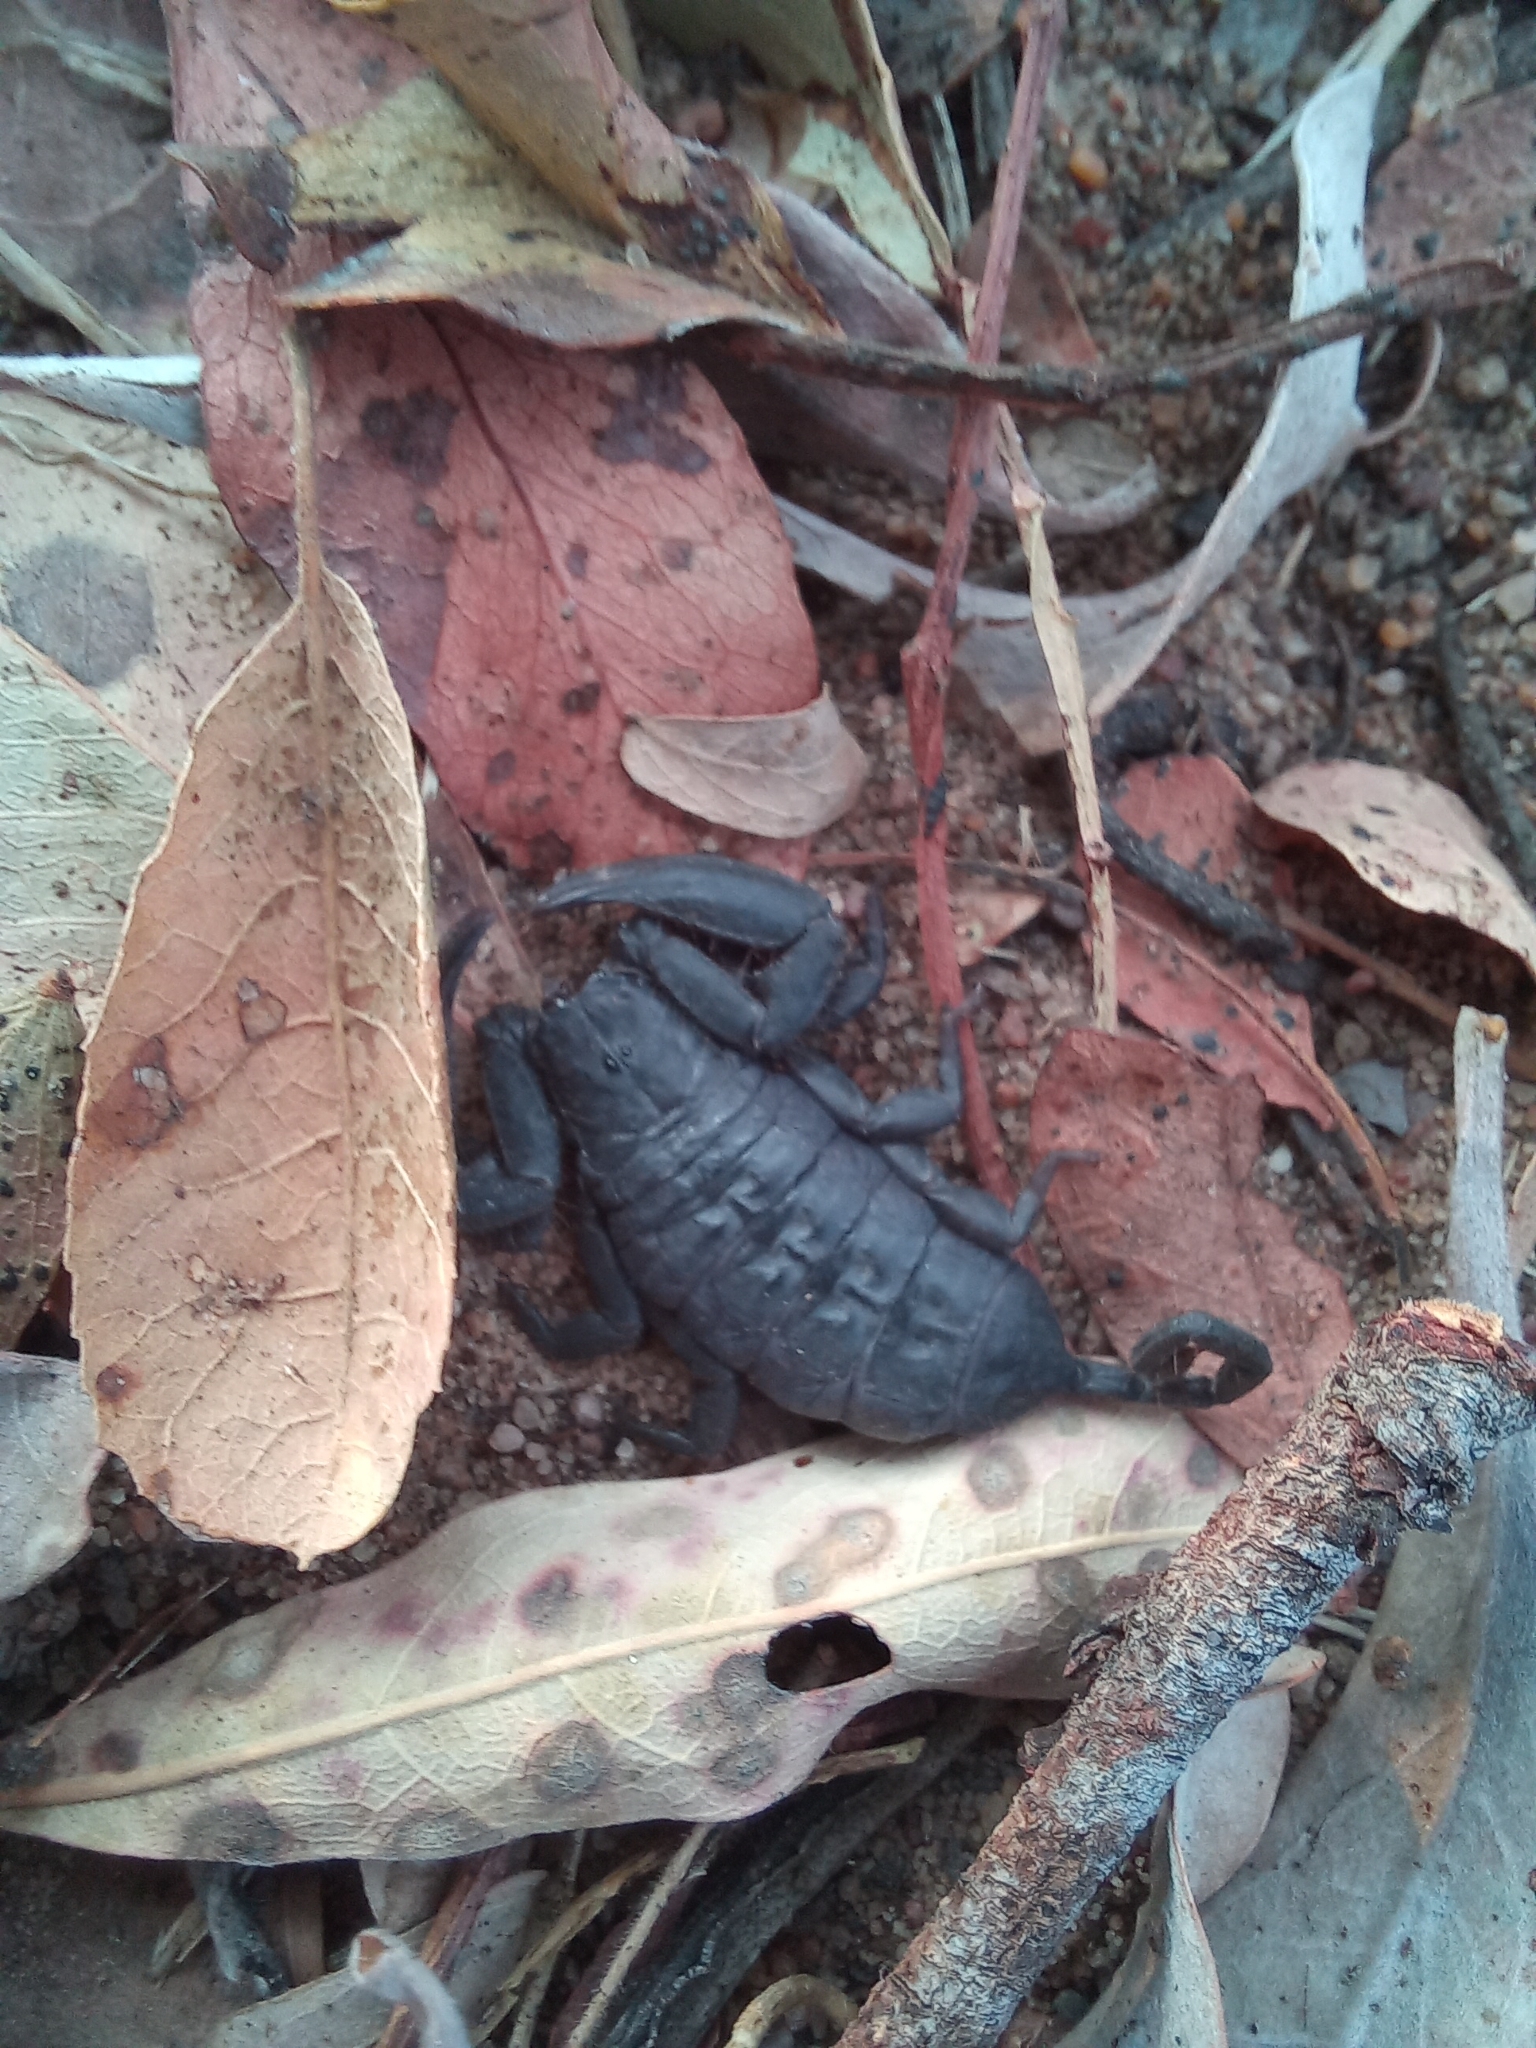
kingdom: Animalia
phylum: Arthropoda
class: Arachnida
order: Scorpiones
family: Hormuridae
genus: Hadogenes
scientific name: Hadogenes troglodytes
